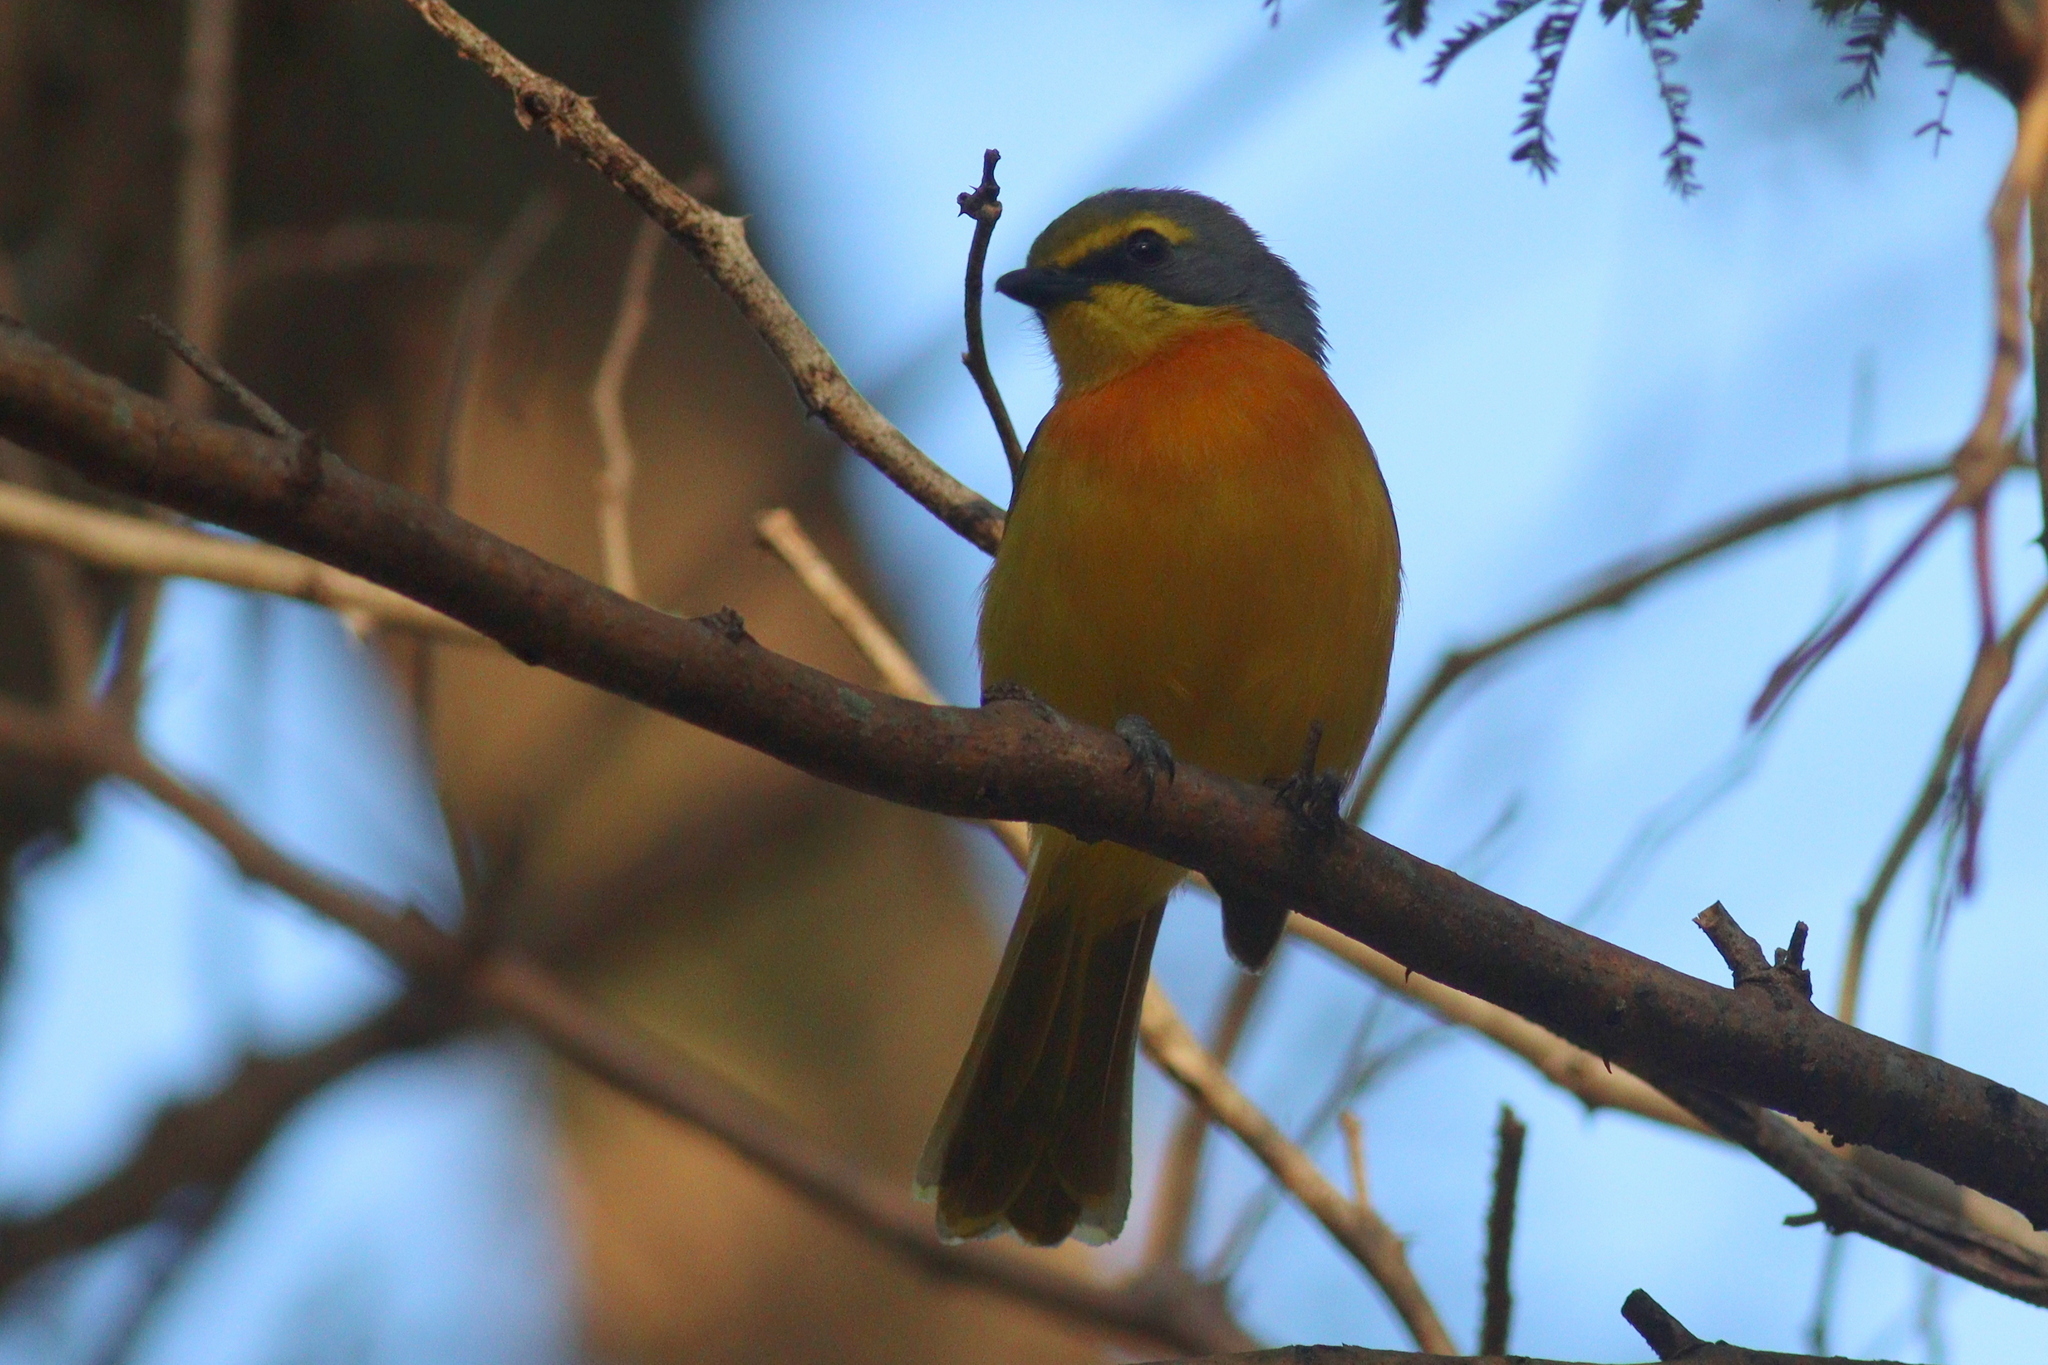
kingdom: Animalia
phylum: Chordata
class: Aves
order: Passeriformes
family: Malaconotidae
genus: Chlorophoneus
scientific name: Chlorophoneus sulfureopectus
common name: Orange-breasted bushshrike
